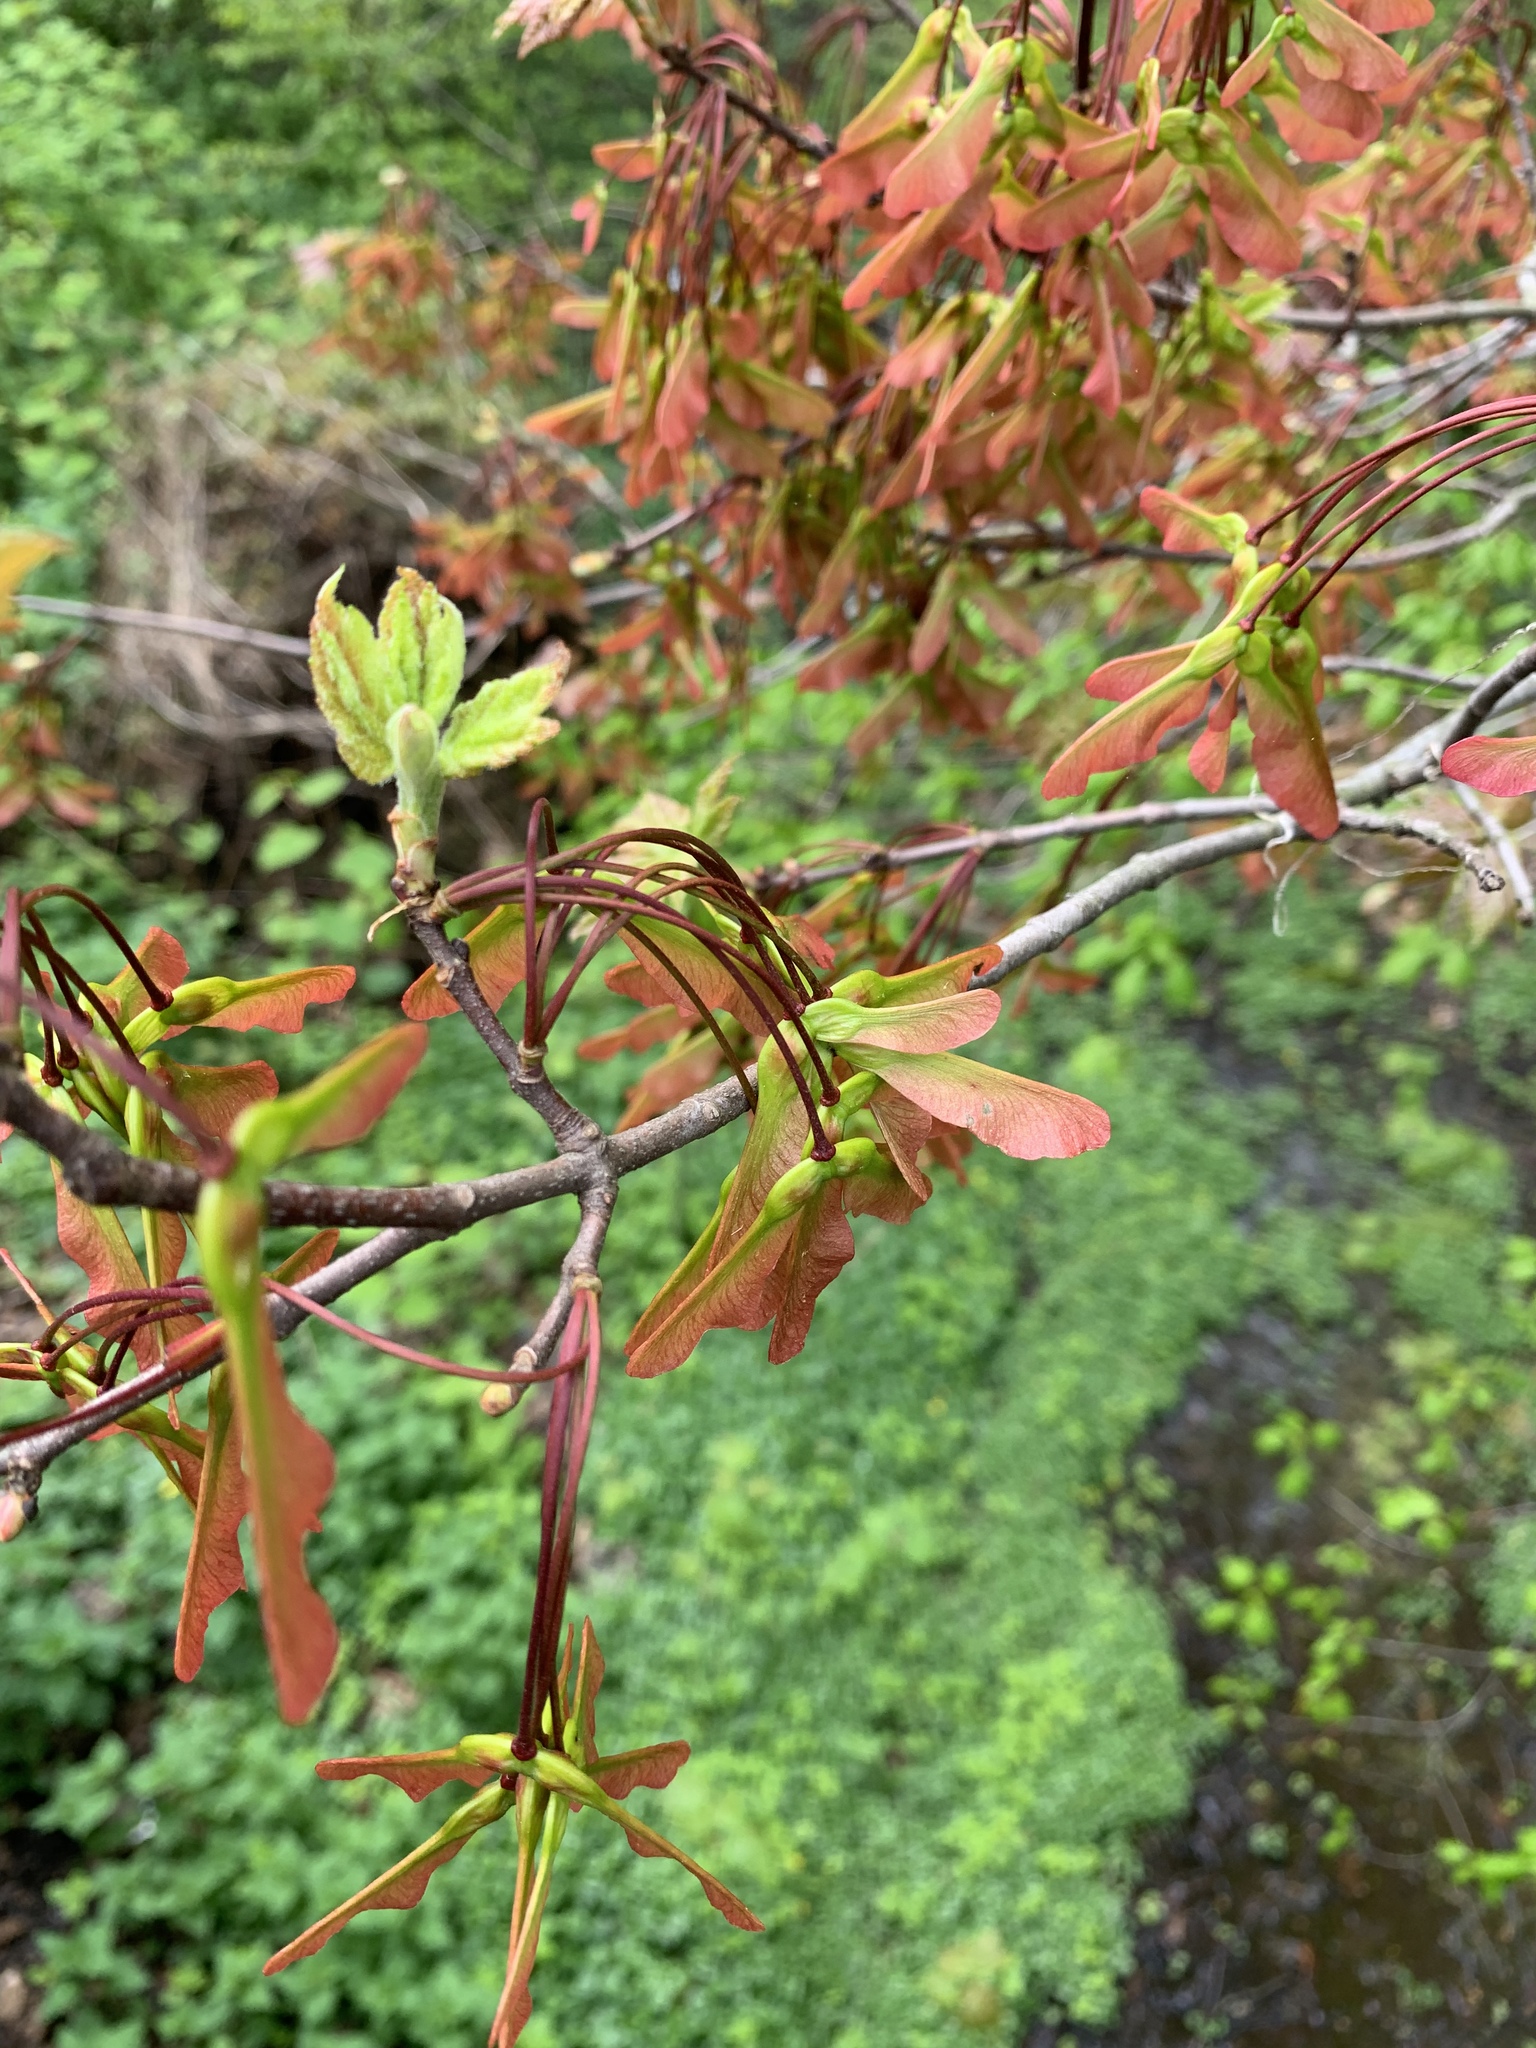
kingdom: Plantae
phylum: Tracheophyta
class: Magnoliopsida
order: Sapindales
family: Sapindaceae
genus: Acer
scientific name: Acer rubrum
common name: Red maple
